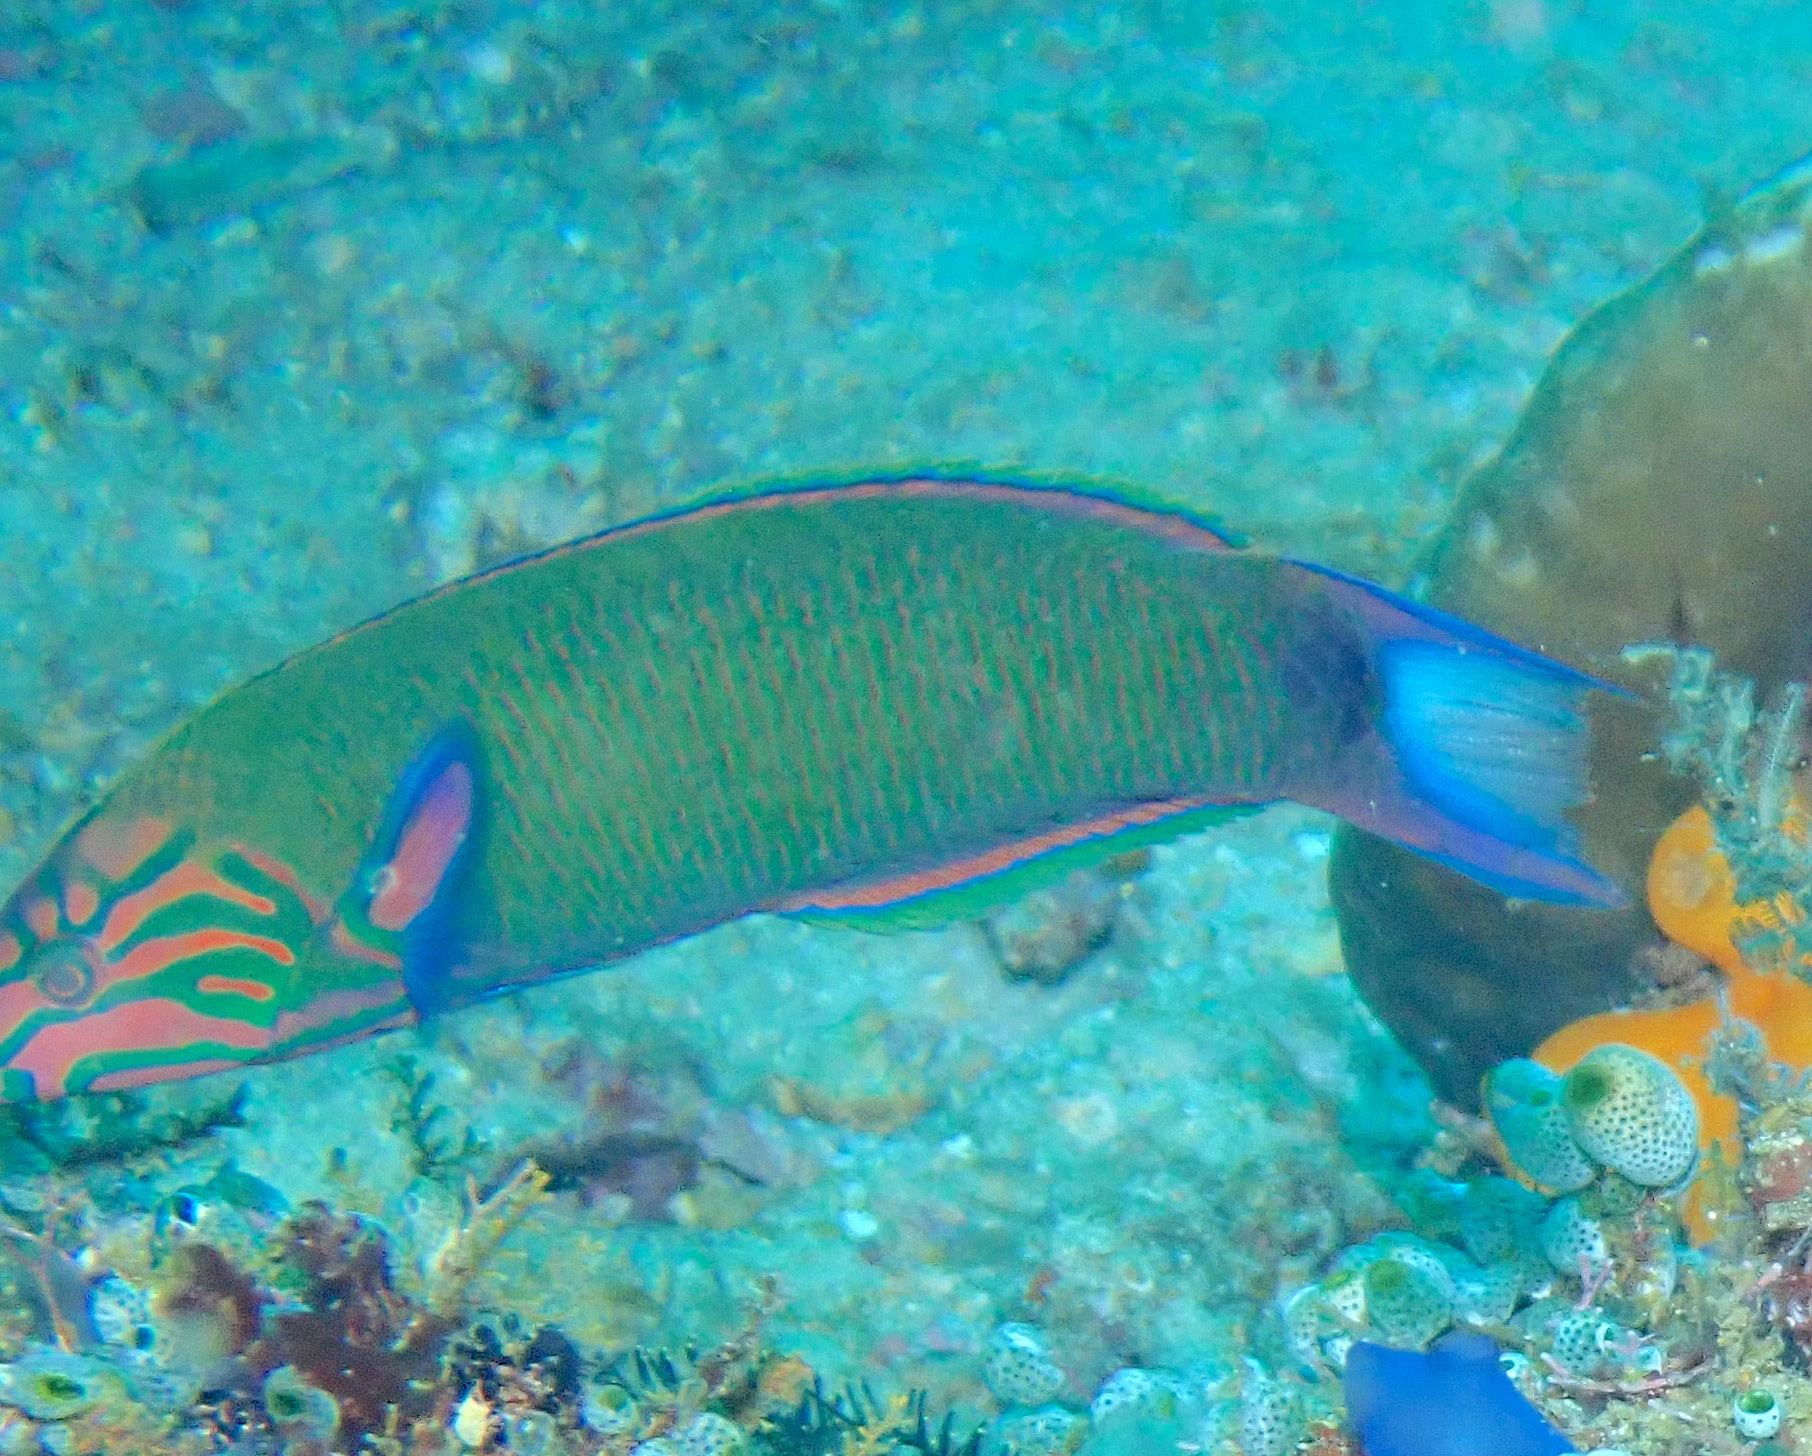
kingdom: Animalia
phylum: Chordata
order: Perciformes
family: Labridae
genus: Thalassoma
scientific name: Thalassoma lunare
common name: Blue wrasse
